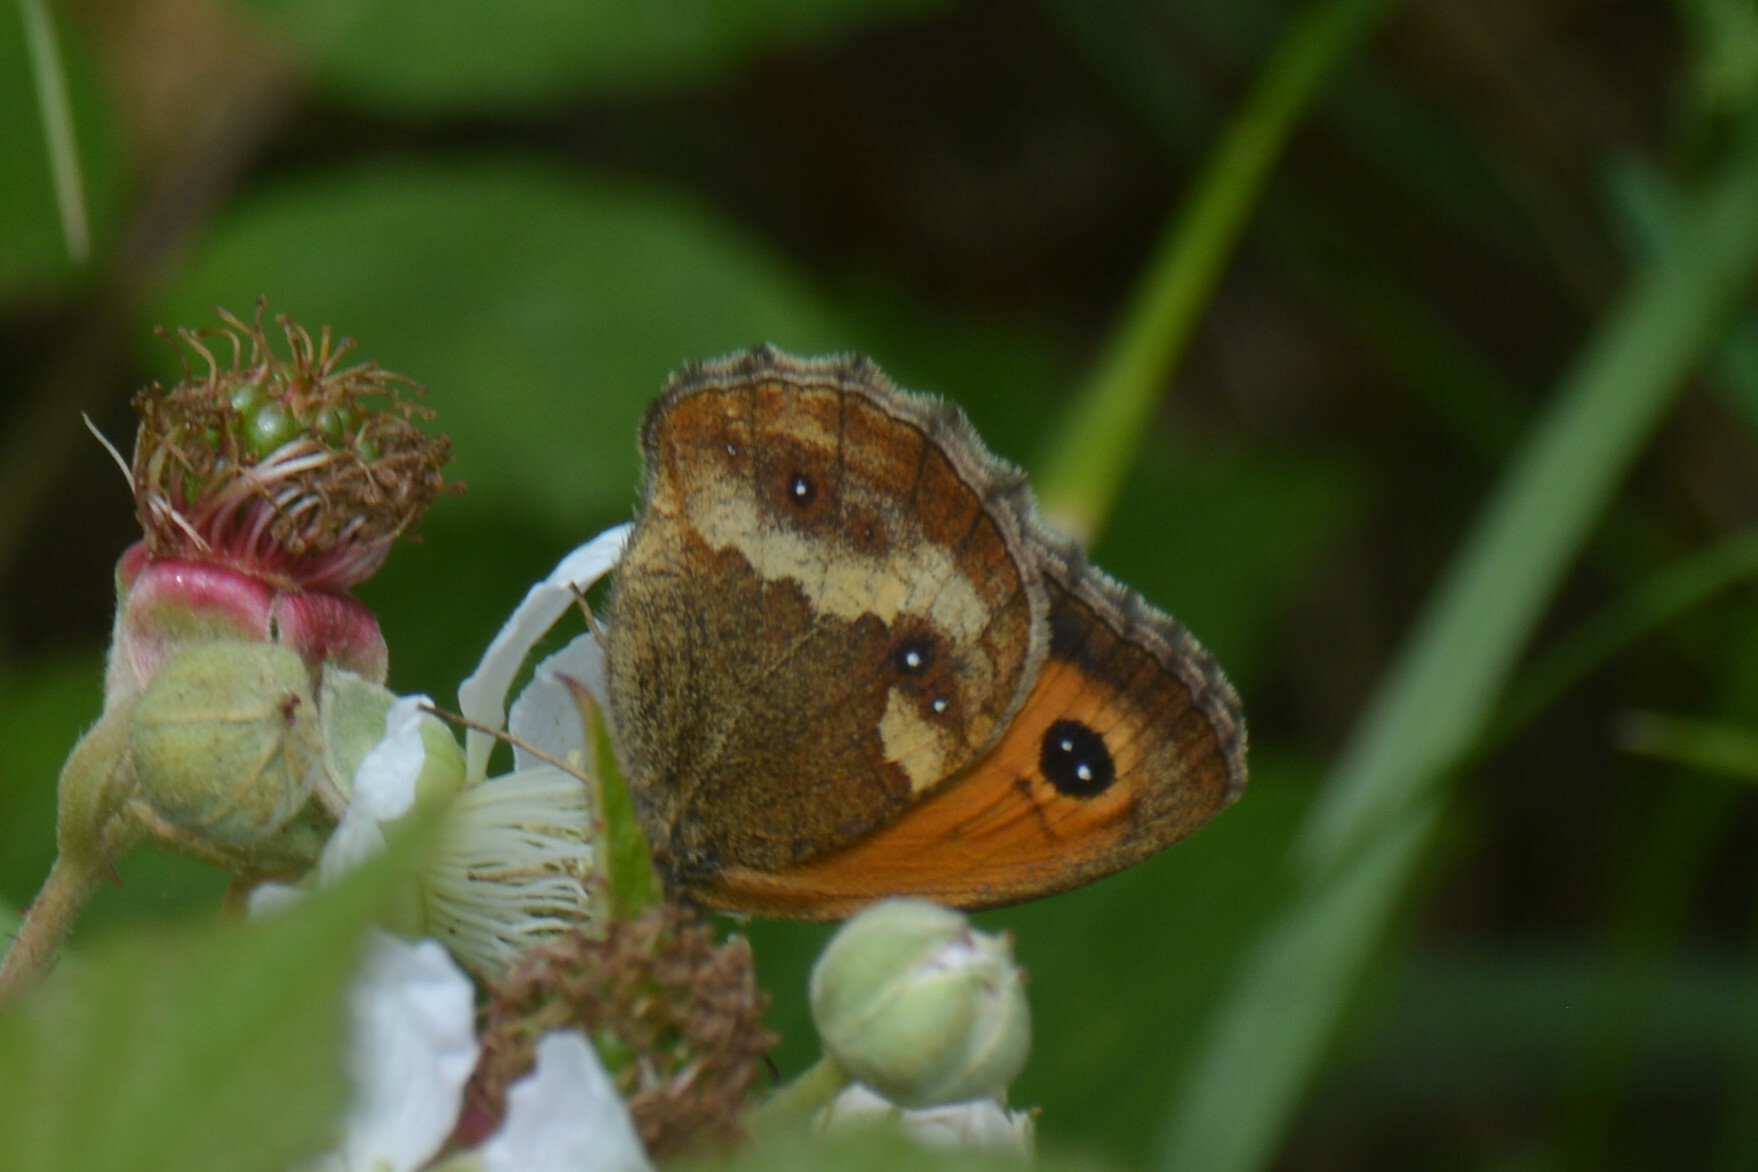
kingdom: Animalia
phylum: Arthropoda
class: Insecta
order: Lepidoptera
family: Nymphalidae
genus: Pyronia
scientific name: Pyronia tithonus
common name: Gatekeeper
